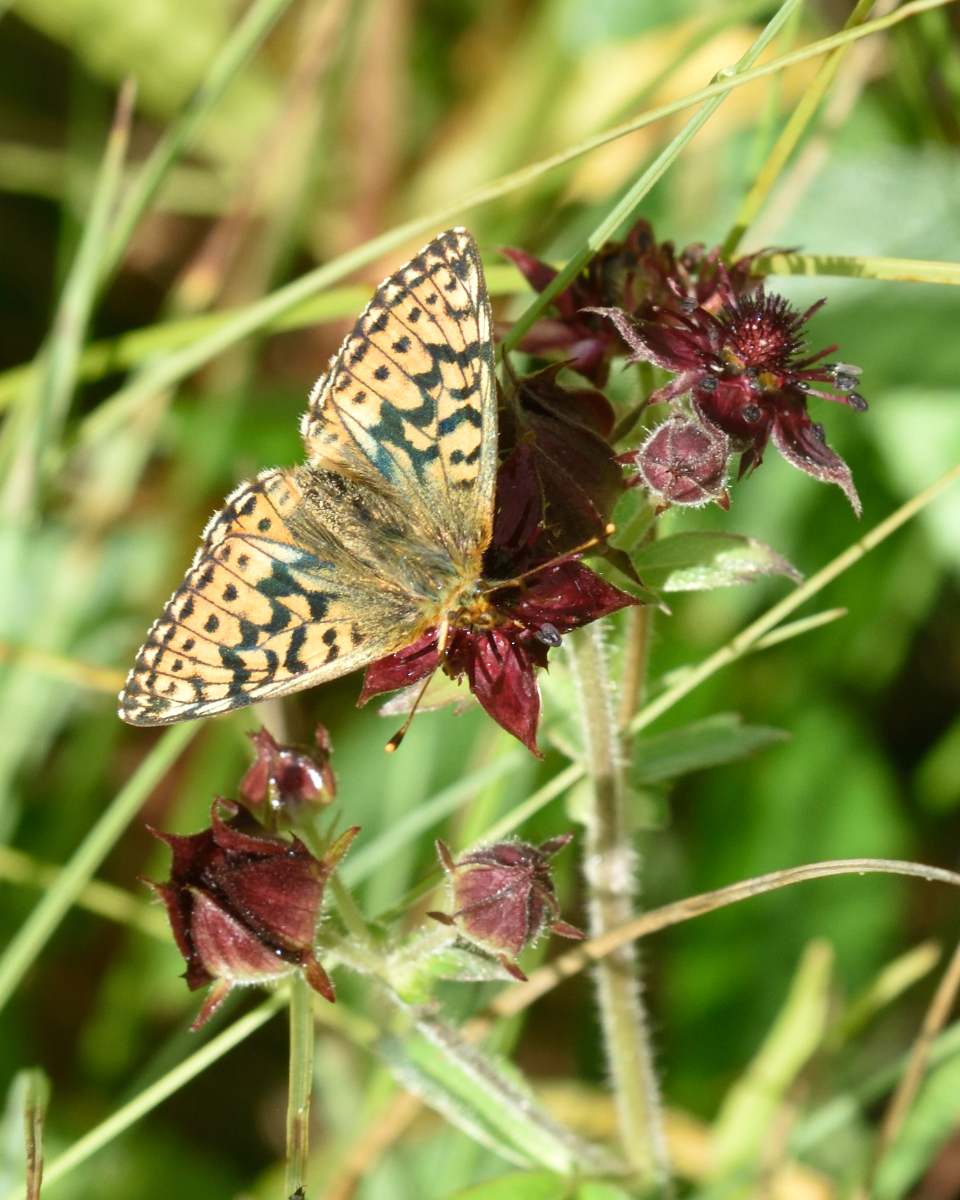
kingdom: Animalia
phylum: Arthropoda
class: Insecta
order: Lepidoptera
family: Nymphalidae
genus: Boloria
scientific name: Boloria aquilonaris
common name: Cranberry fritillary
